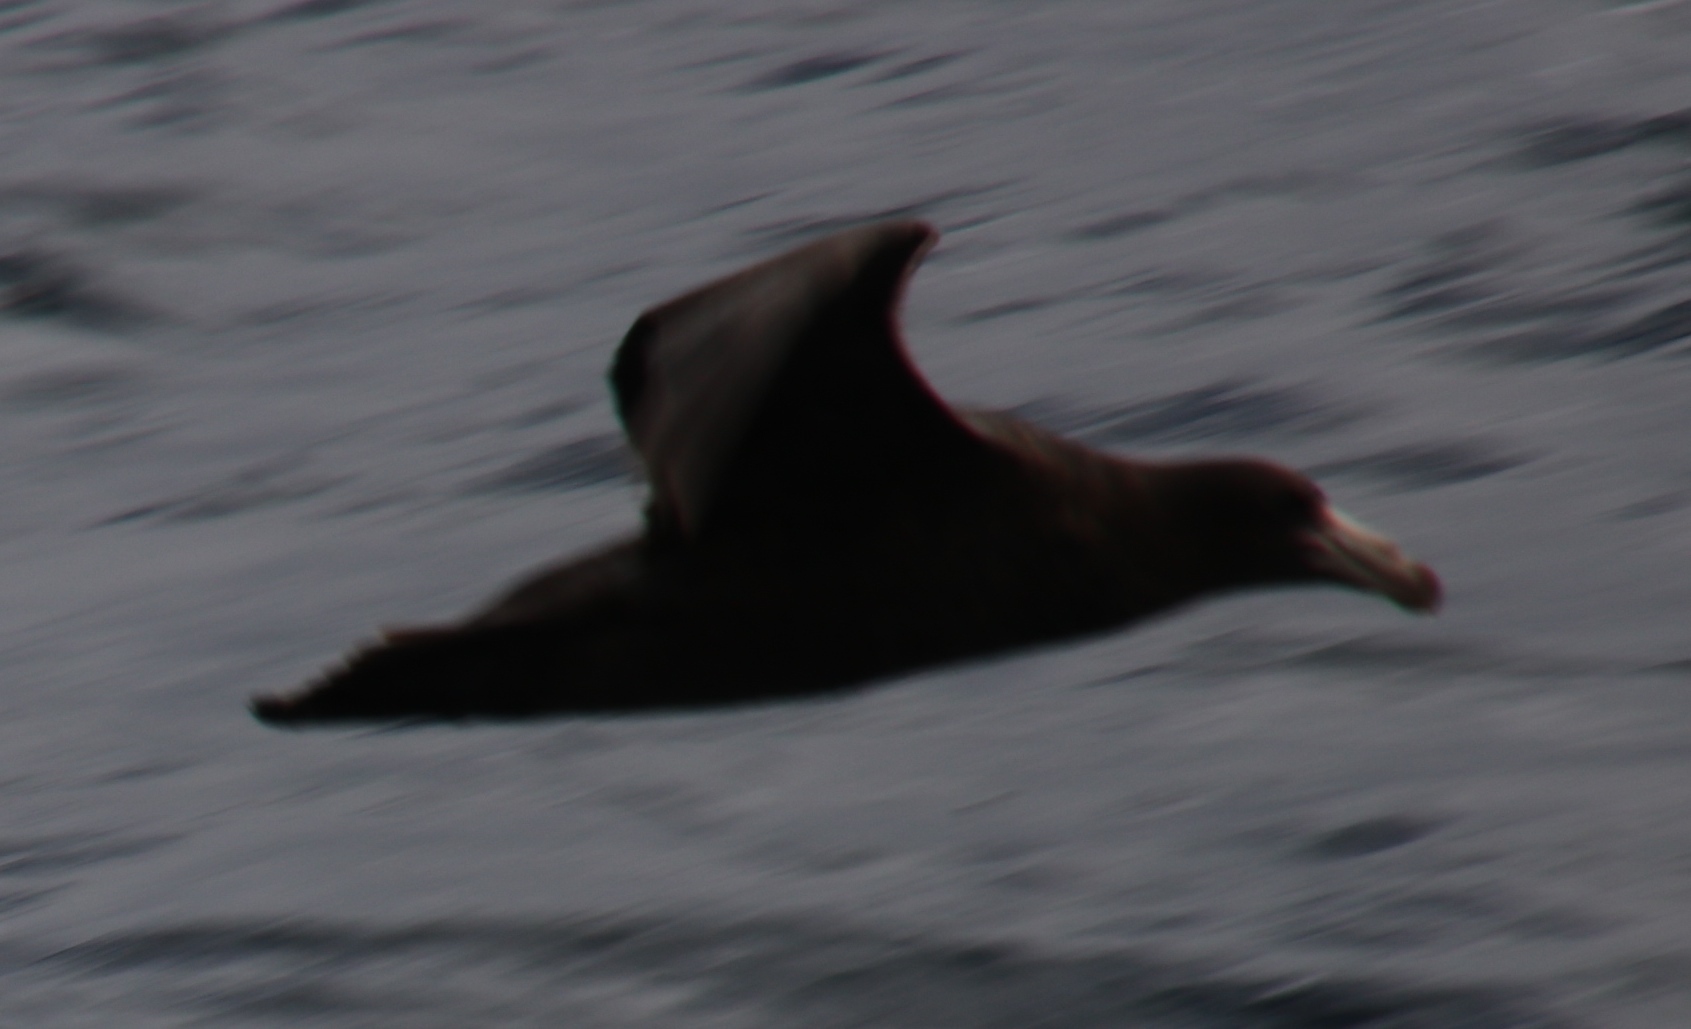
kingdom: Animalia
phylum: Chordata
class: Aves
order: Procellariiformes
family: Procellariidae
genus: Macronectes
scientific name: Macronectes halli
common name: Northern giant petrel
